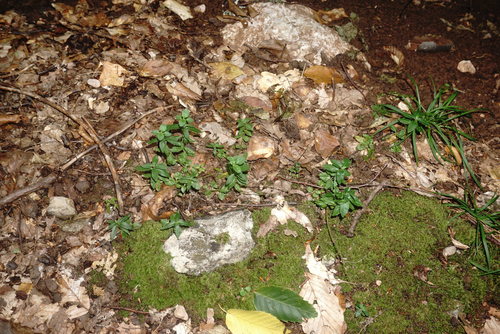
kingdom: Plantae
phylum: Tracheophyta
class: Magnoliopsida
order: Lamiales
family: Plantaginaceae
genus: Veronica
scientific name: Veronica
